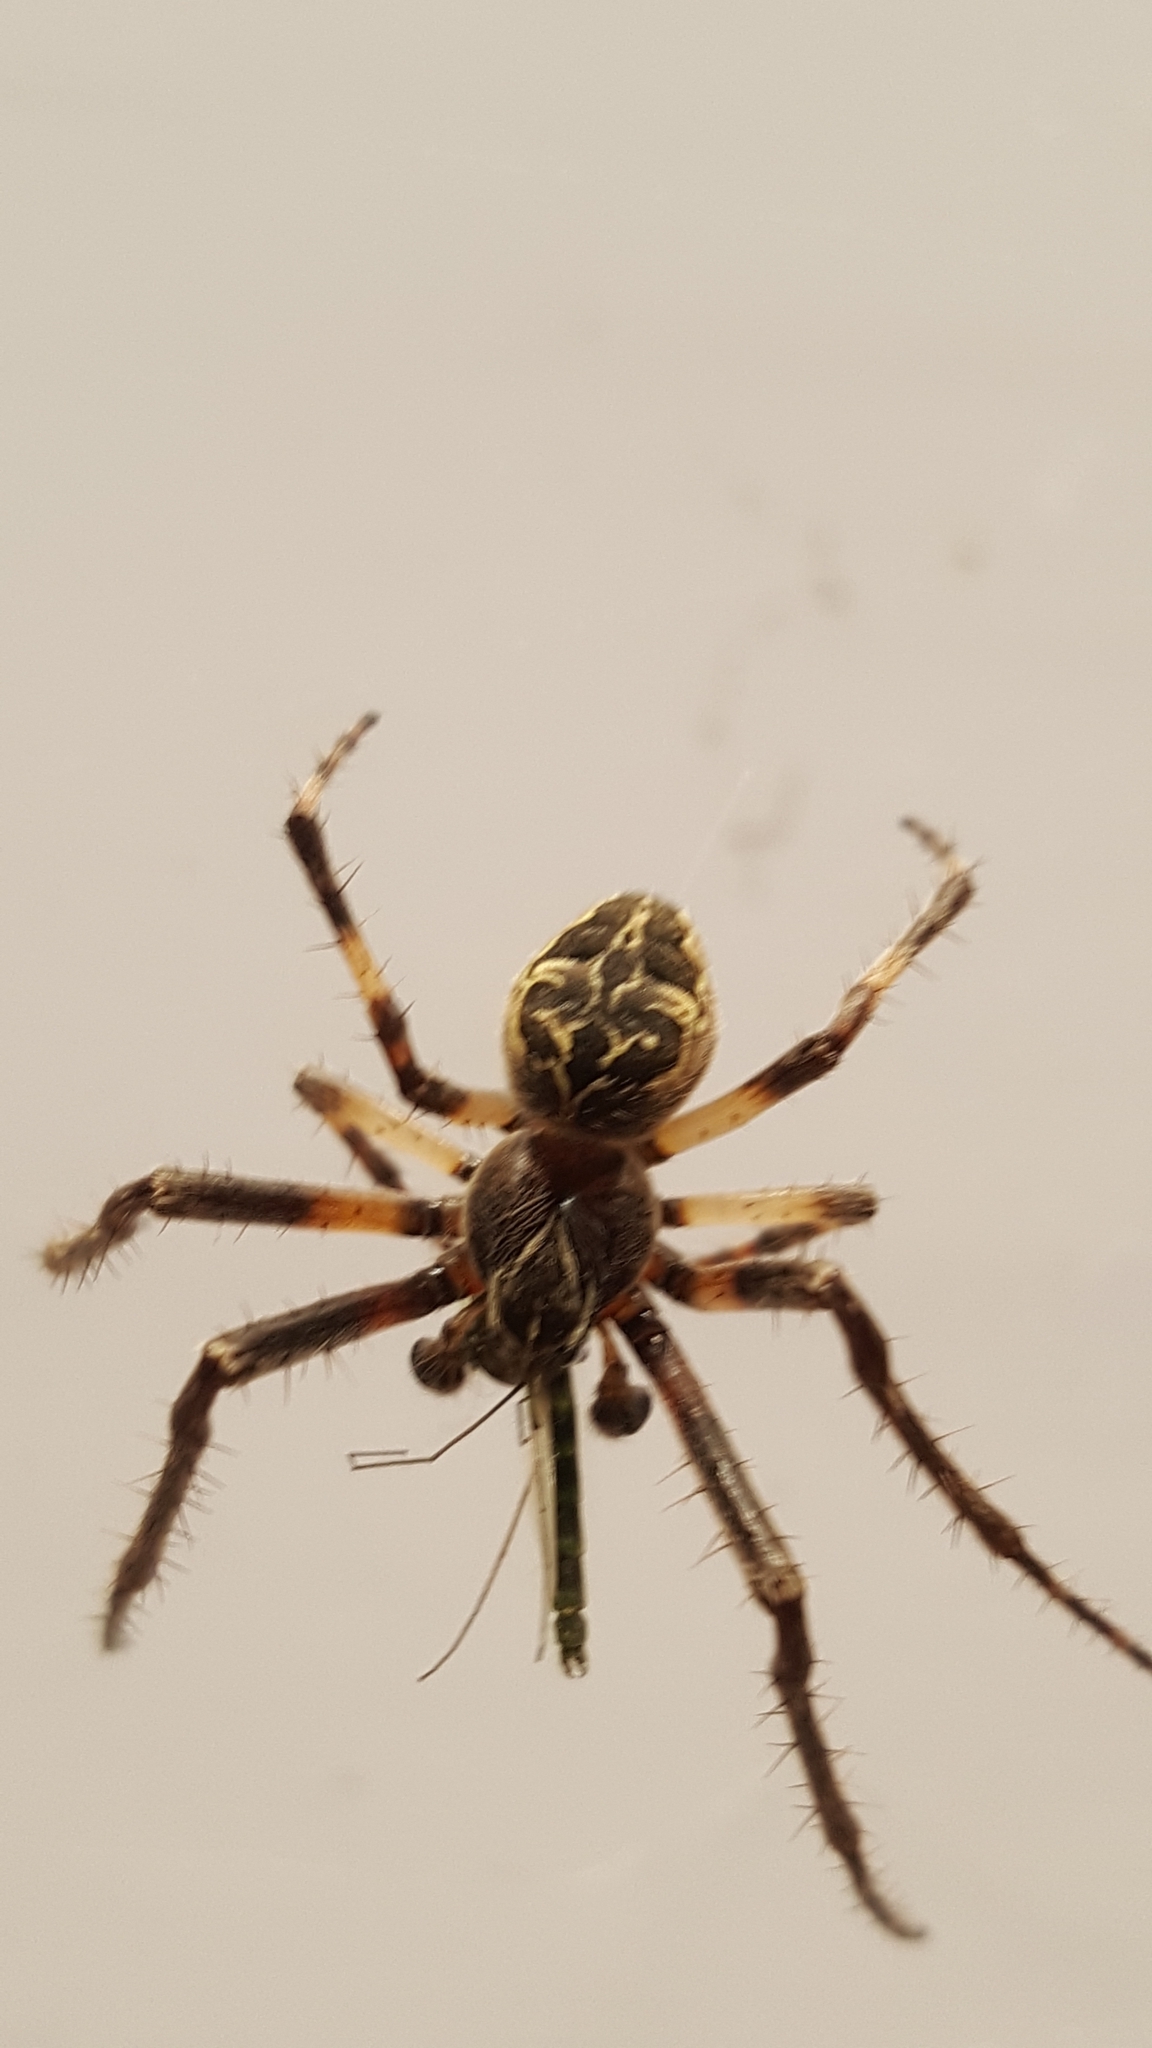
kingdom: Animalia
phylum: Arthropoda
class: Arachnida
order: Araneae
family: Araneidae
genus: Larinioides
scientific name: Larinioides sclopetarius
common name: Bridge orbweaver
